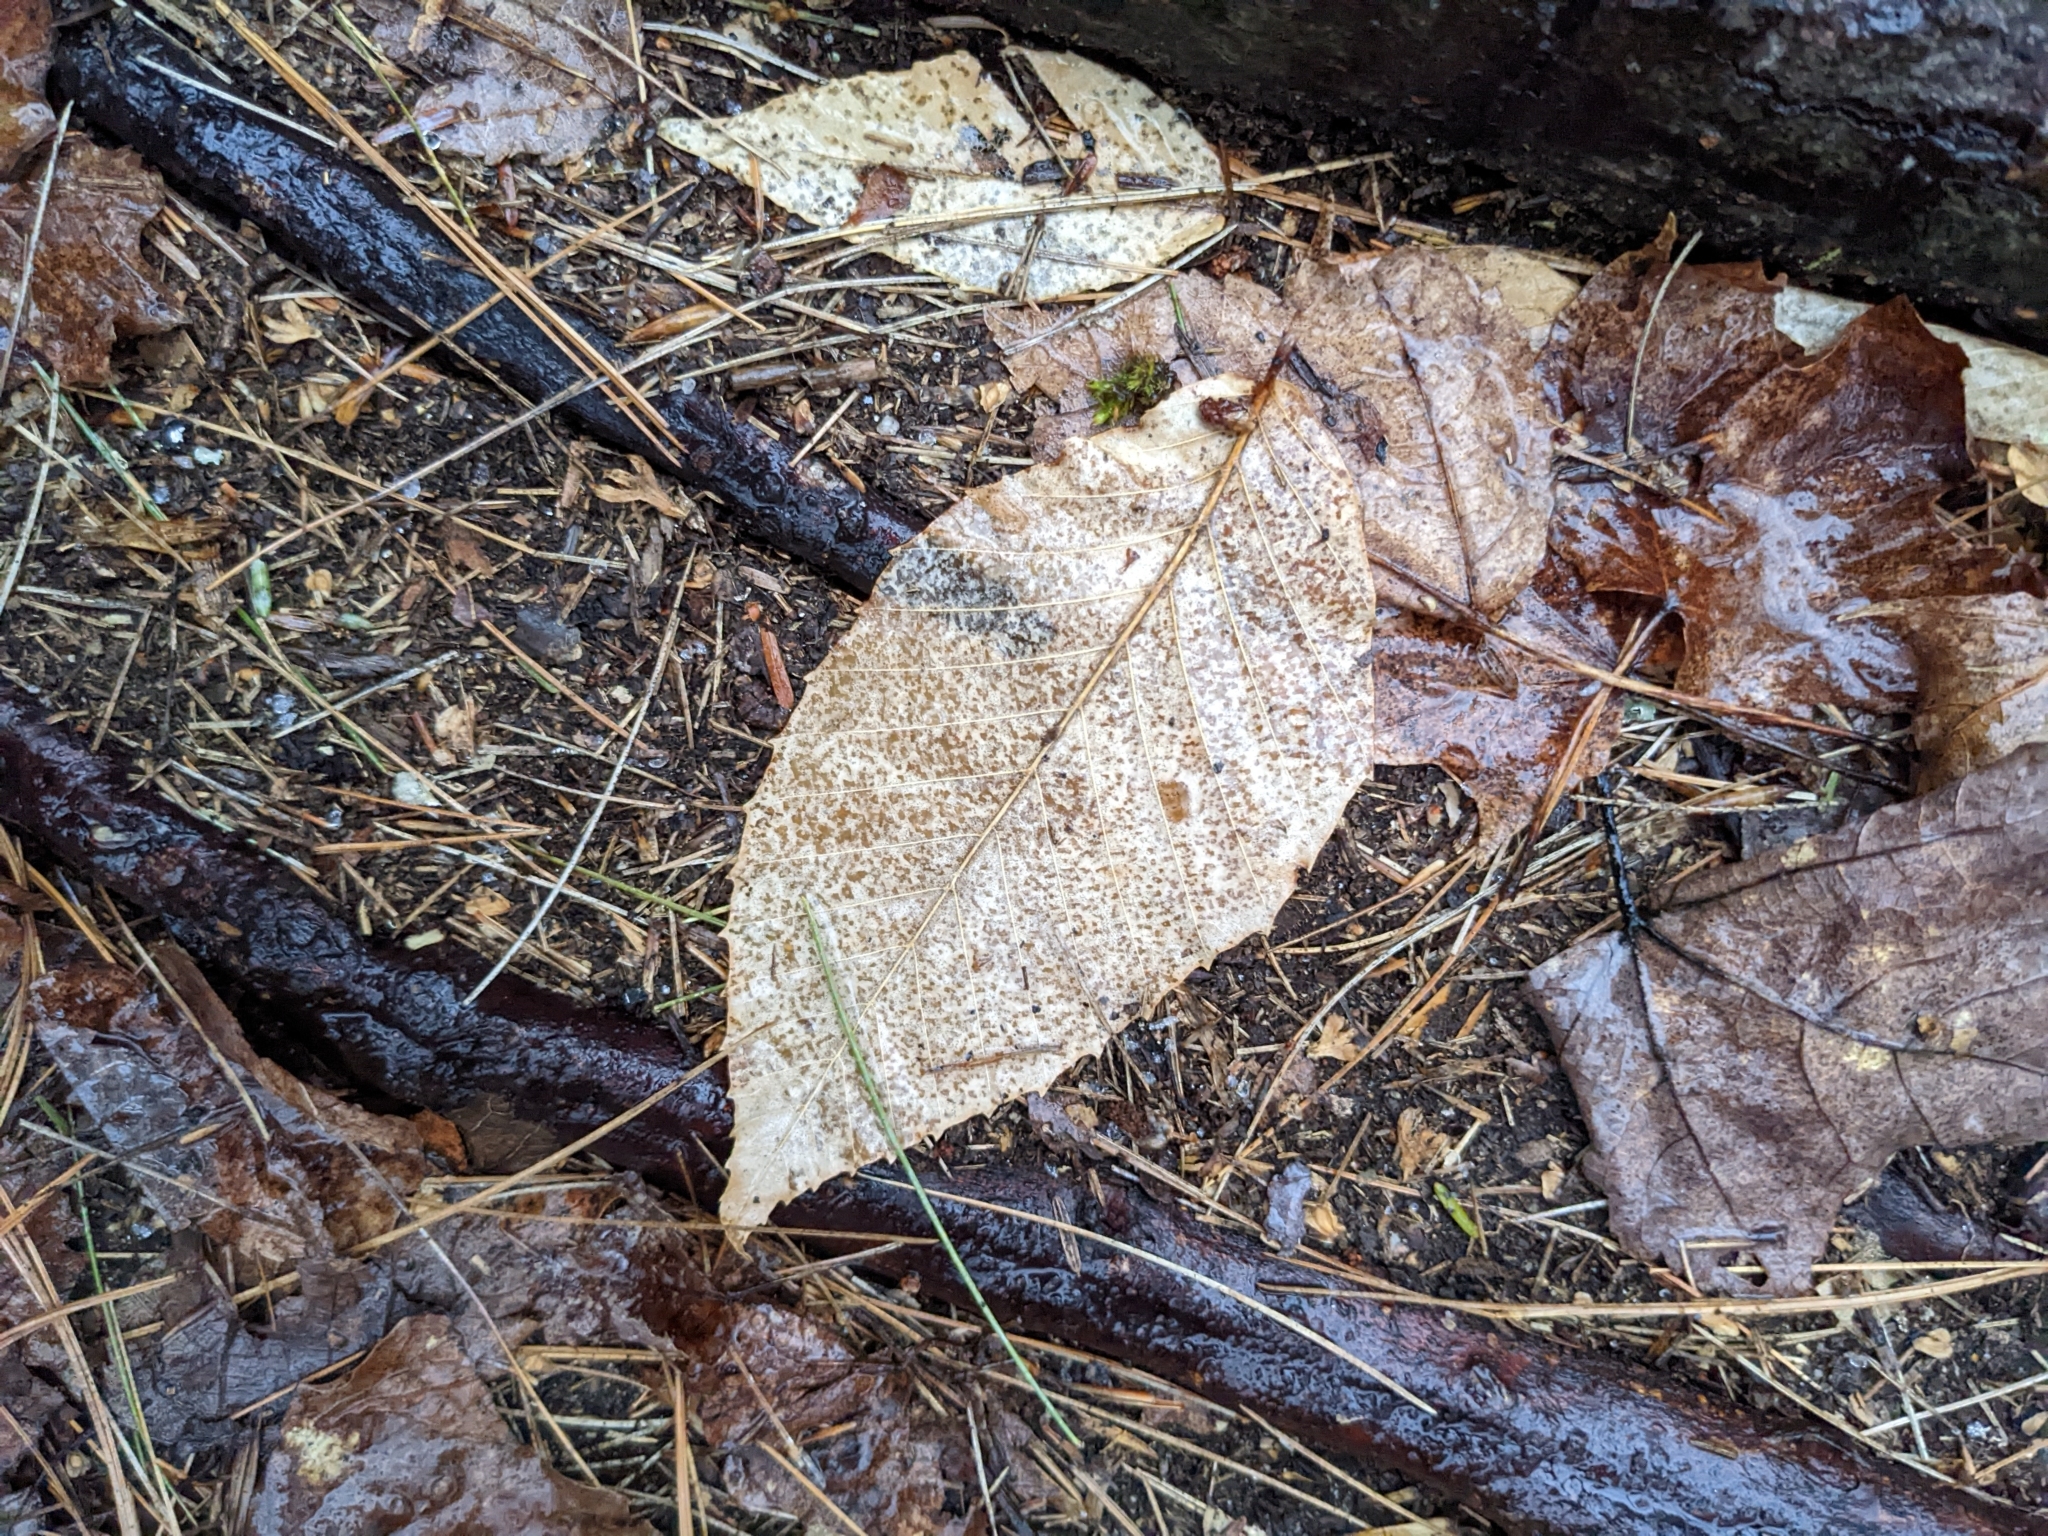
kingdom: Plantae
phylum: Tracheophyta
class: Magnoliopsida
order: Fagales
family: Fagaceae
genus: Fagus
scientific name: Fagus grandifolia
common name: American beech
